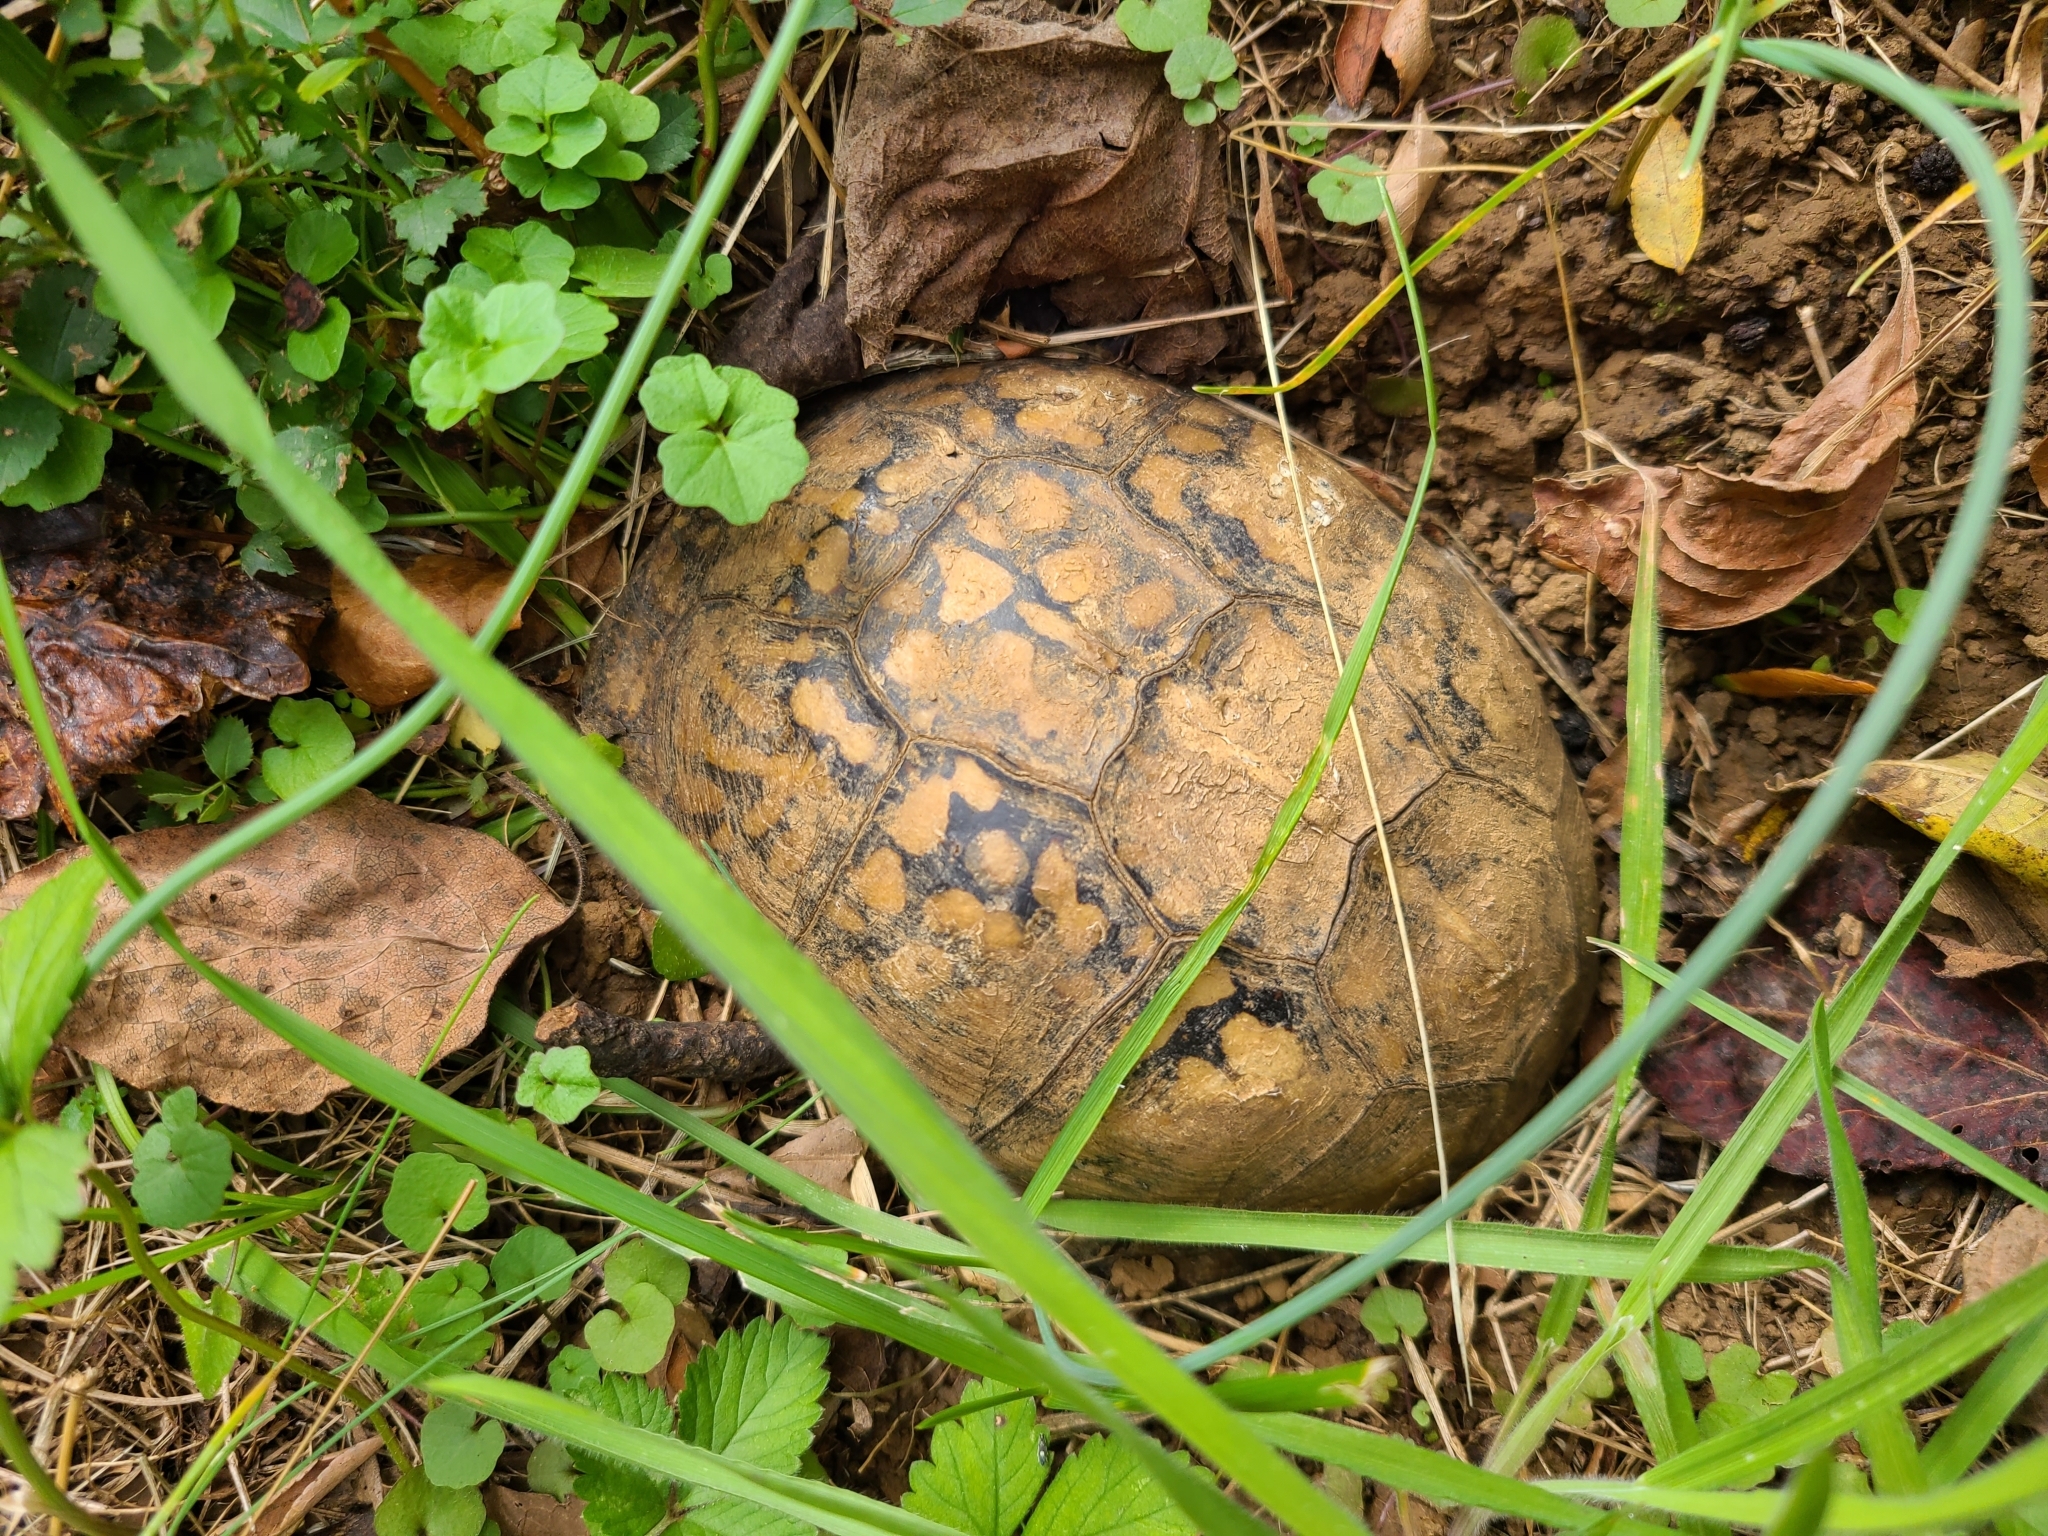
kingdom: Animalia
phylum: Chordata
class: Testudines
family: Emydidae
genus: Terrapene
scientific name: Terrapene carolina
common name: Common box turtle
